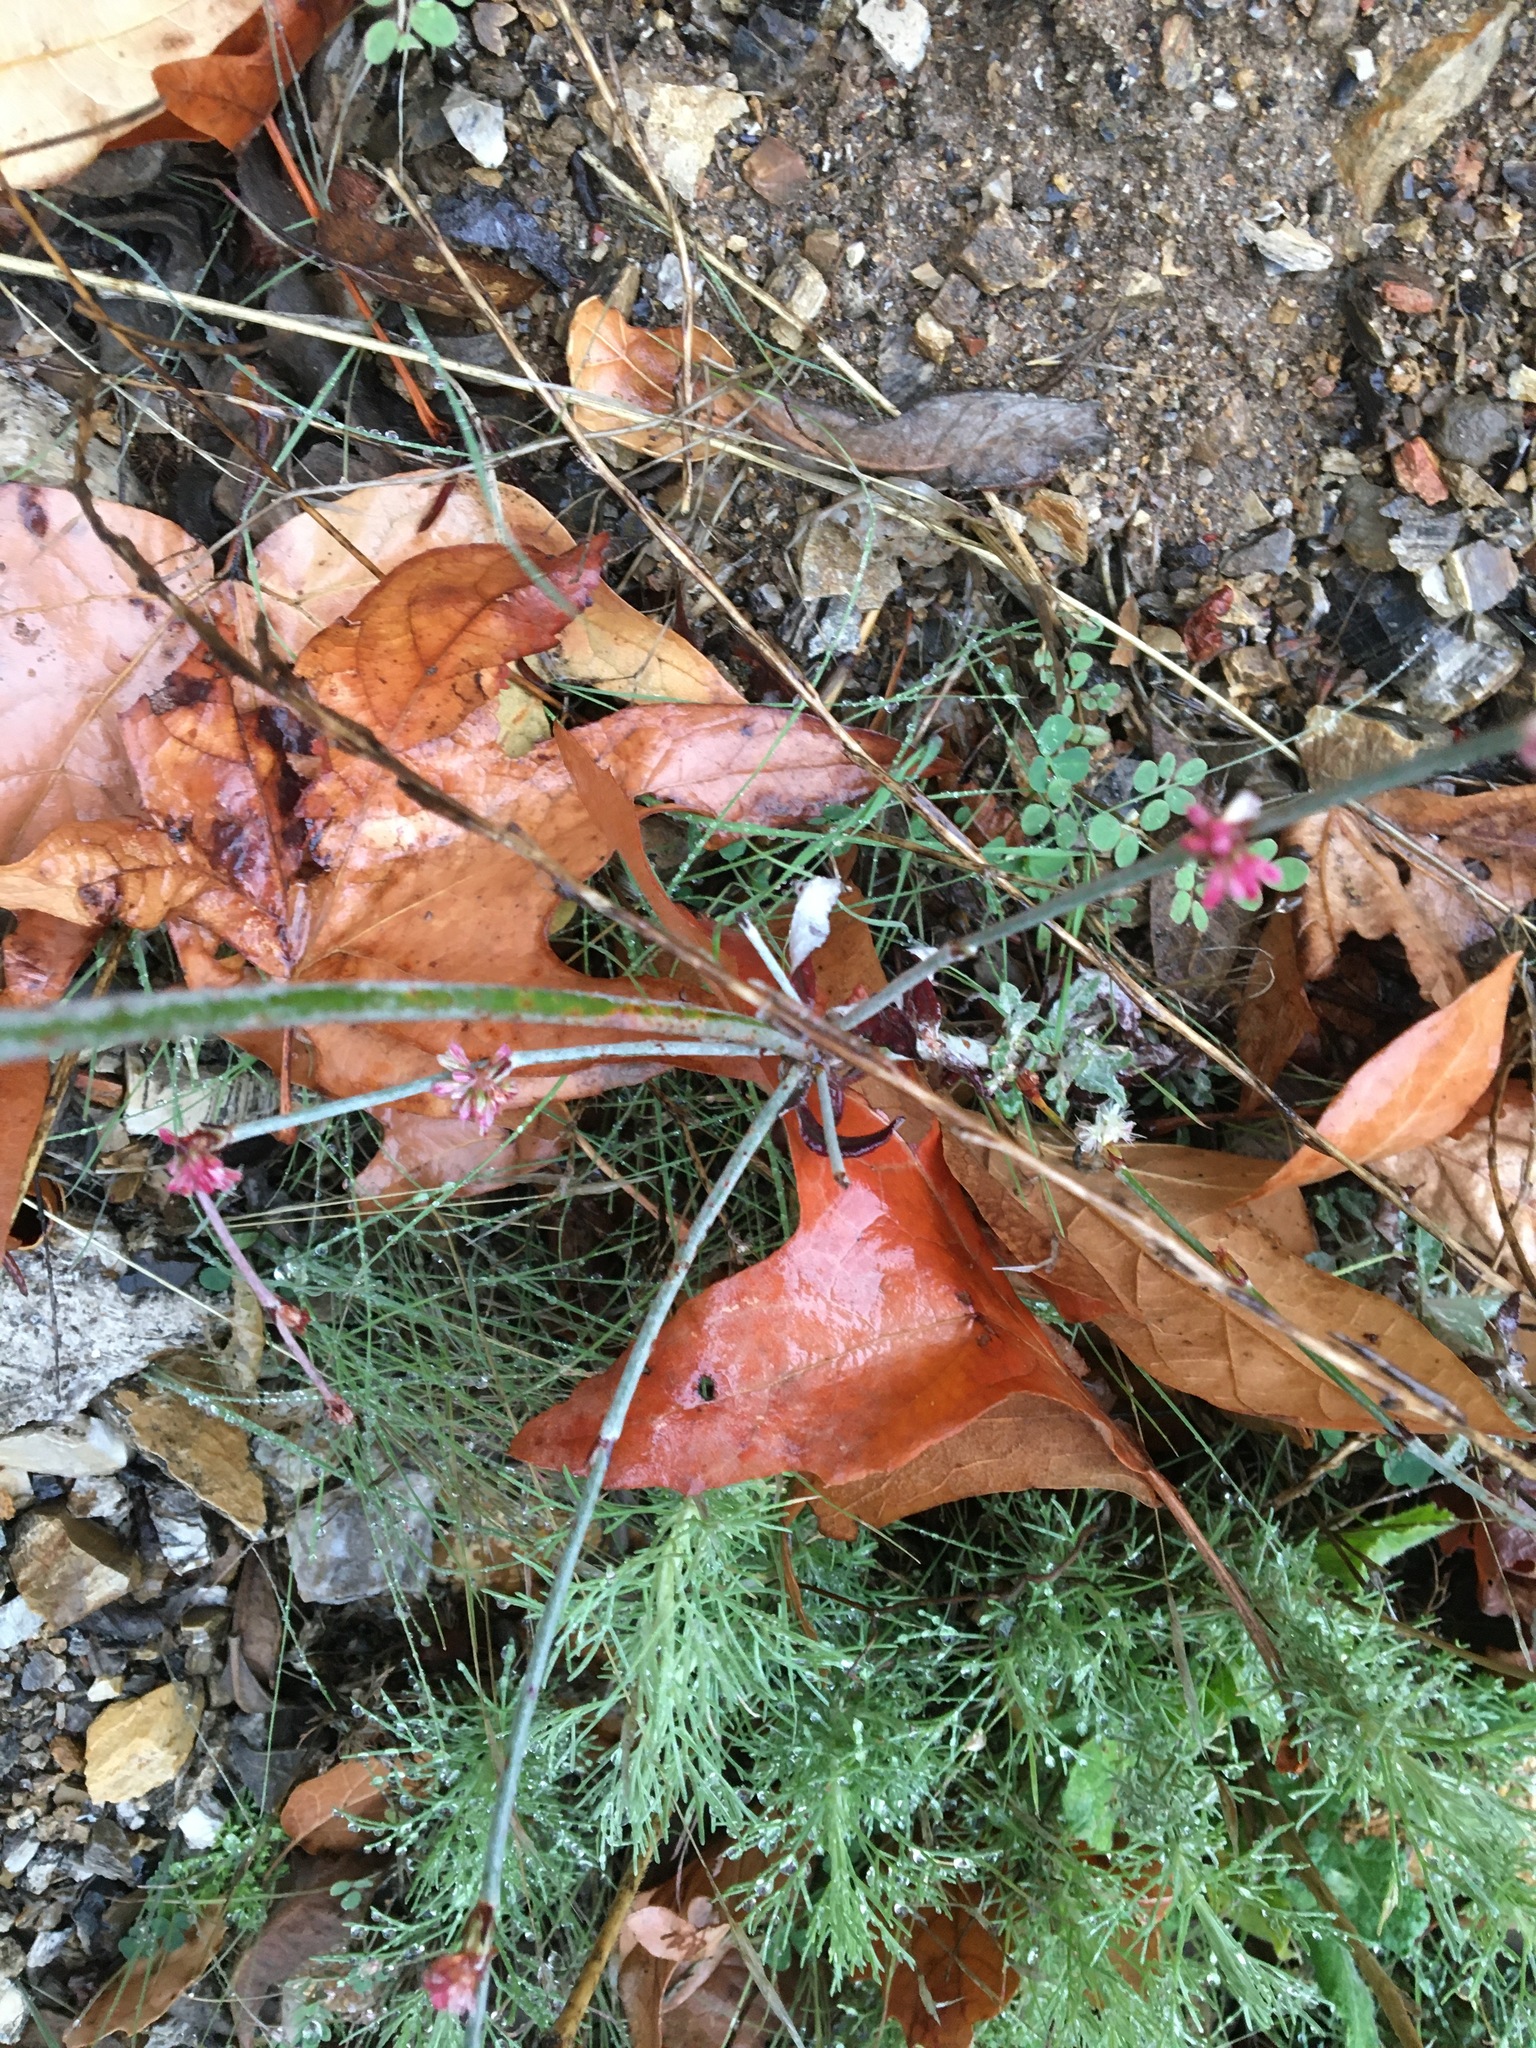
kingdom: Plantae
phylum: Tracheophyta
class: Magnoliopsida
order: Caryophyllales
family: Polygonaceae
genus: Eriogonum
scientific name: Eriogonum elongatum
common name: Long-stem wild buckwheat
